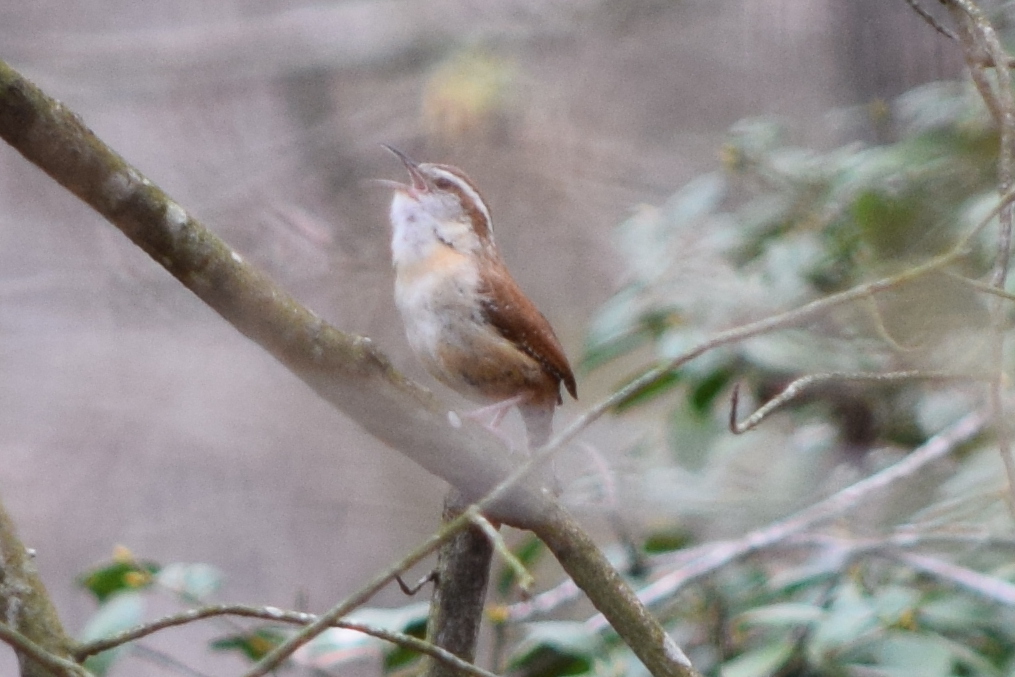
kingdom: Animalia
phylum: Chordata
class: Aves
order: Passeriformes
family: Troglodytidae
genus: Thryothorus
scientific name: Thryothorus ludovicianus
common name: Carolina wren
